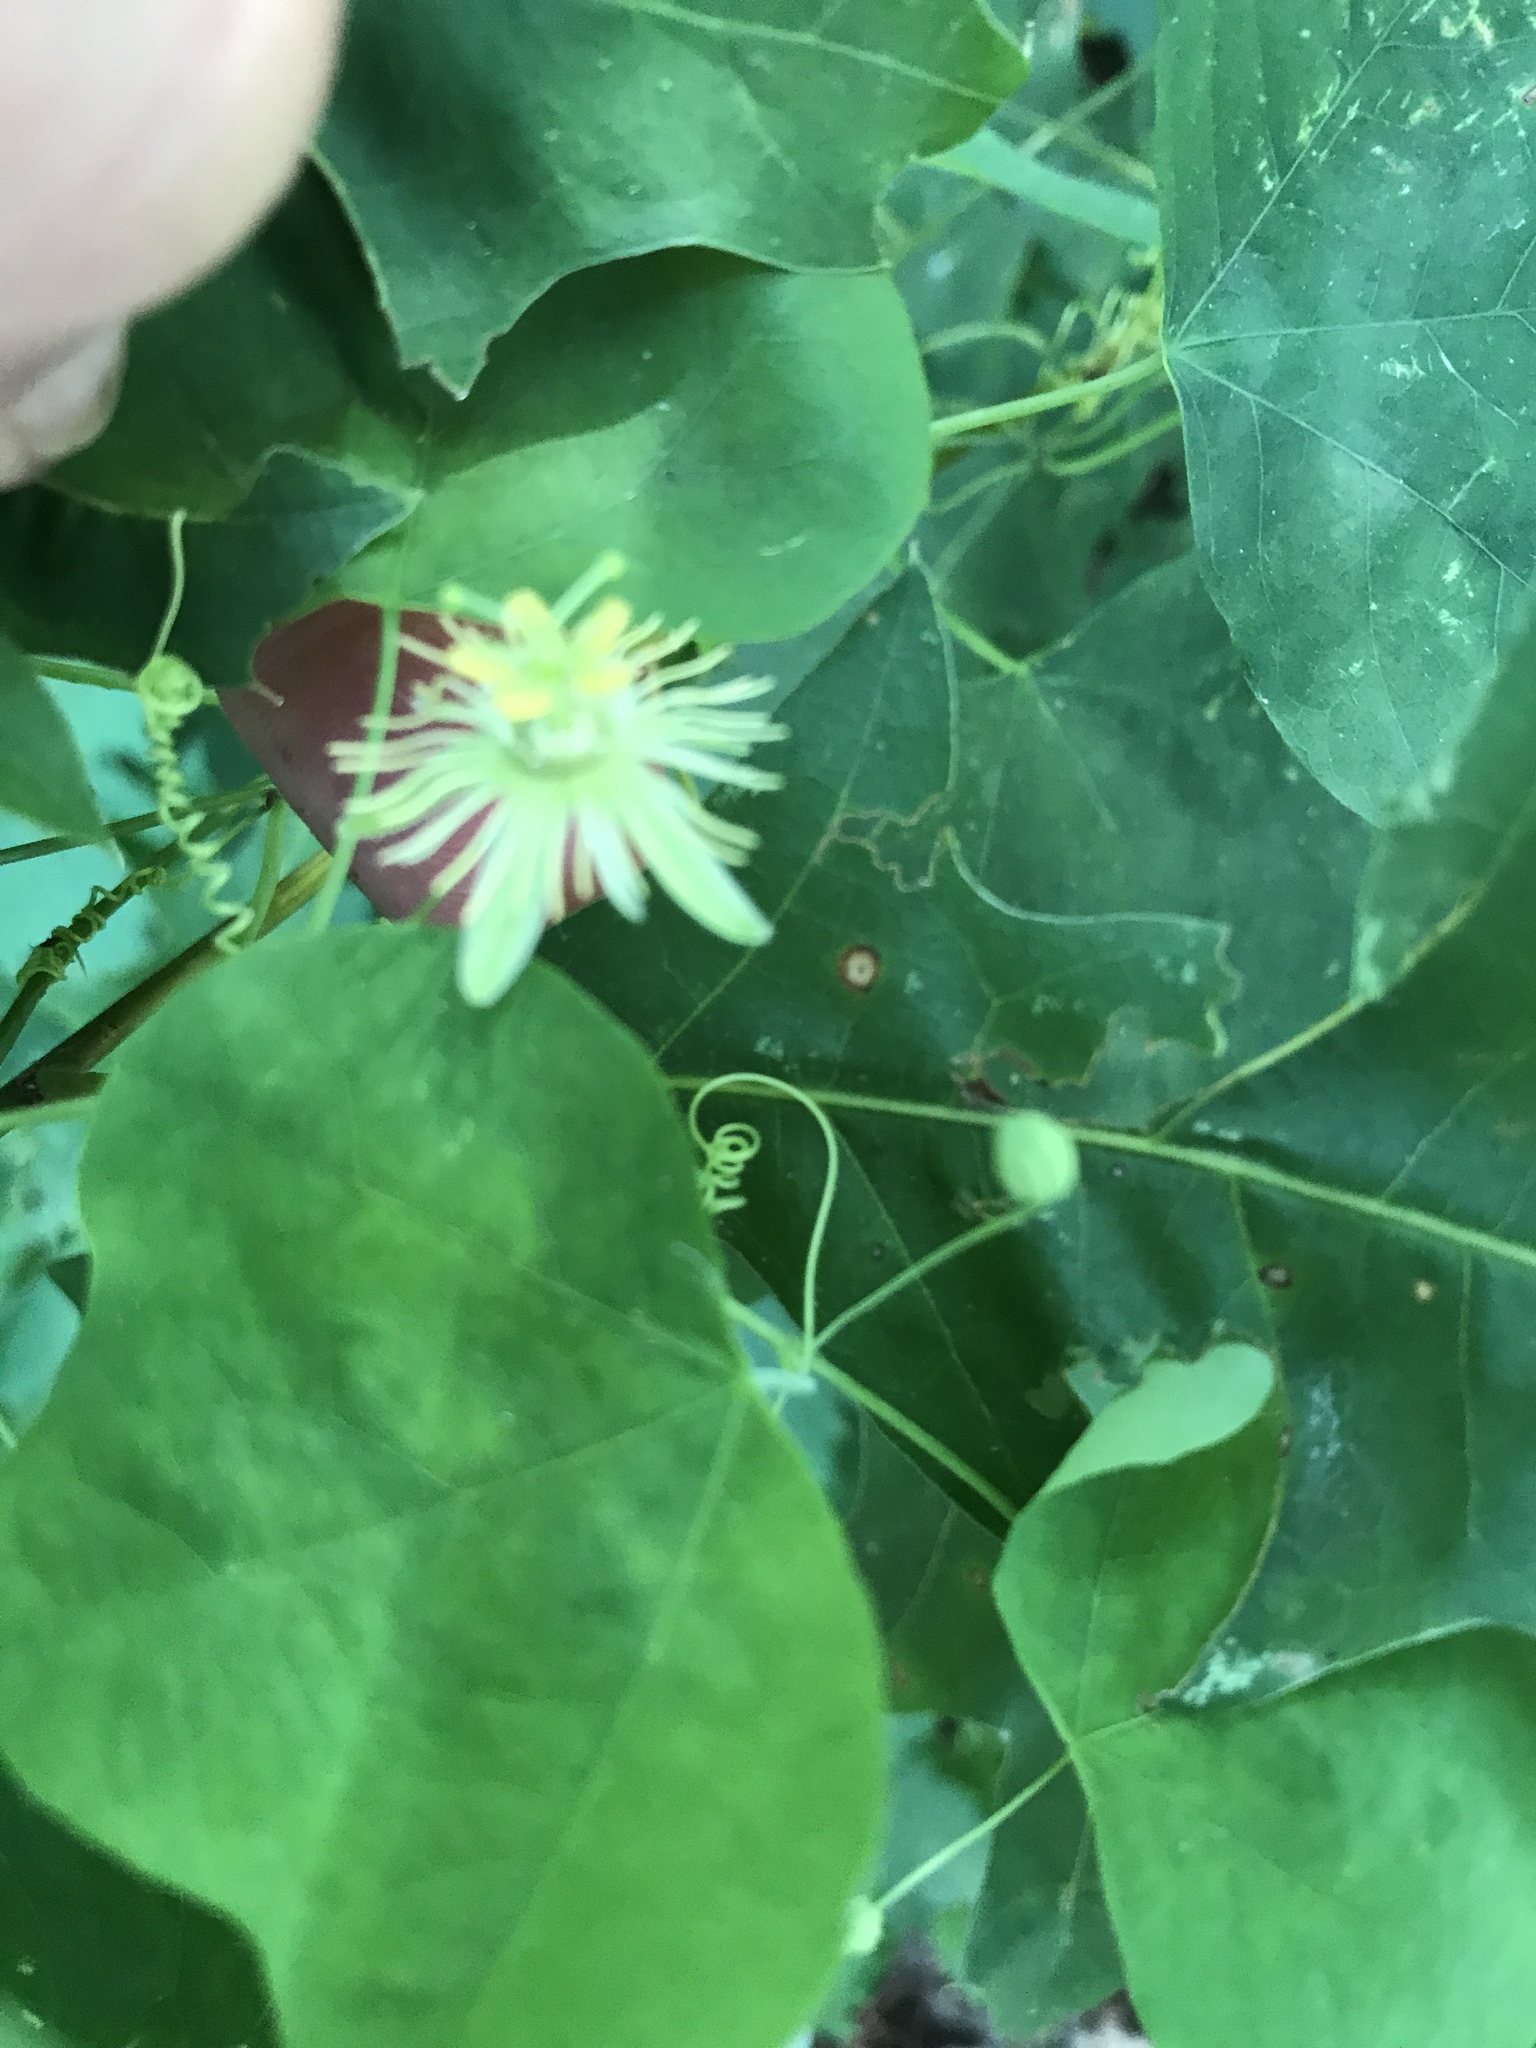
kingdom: Plantae
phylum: Tracheophyta
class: Magnoliopsida
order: Malpighiales
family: Passifloraceae
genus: Passiflora
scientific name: Passiflora lutea
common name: Yellow passionflower
